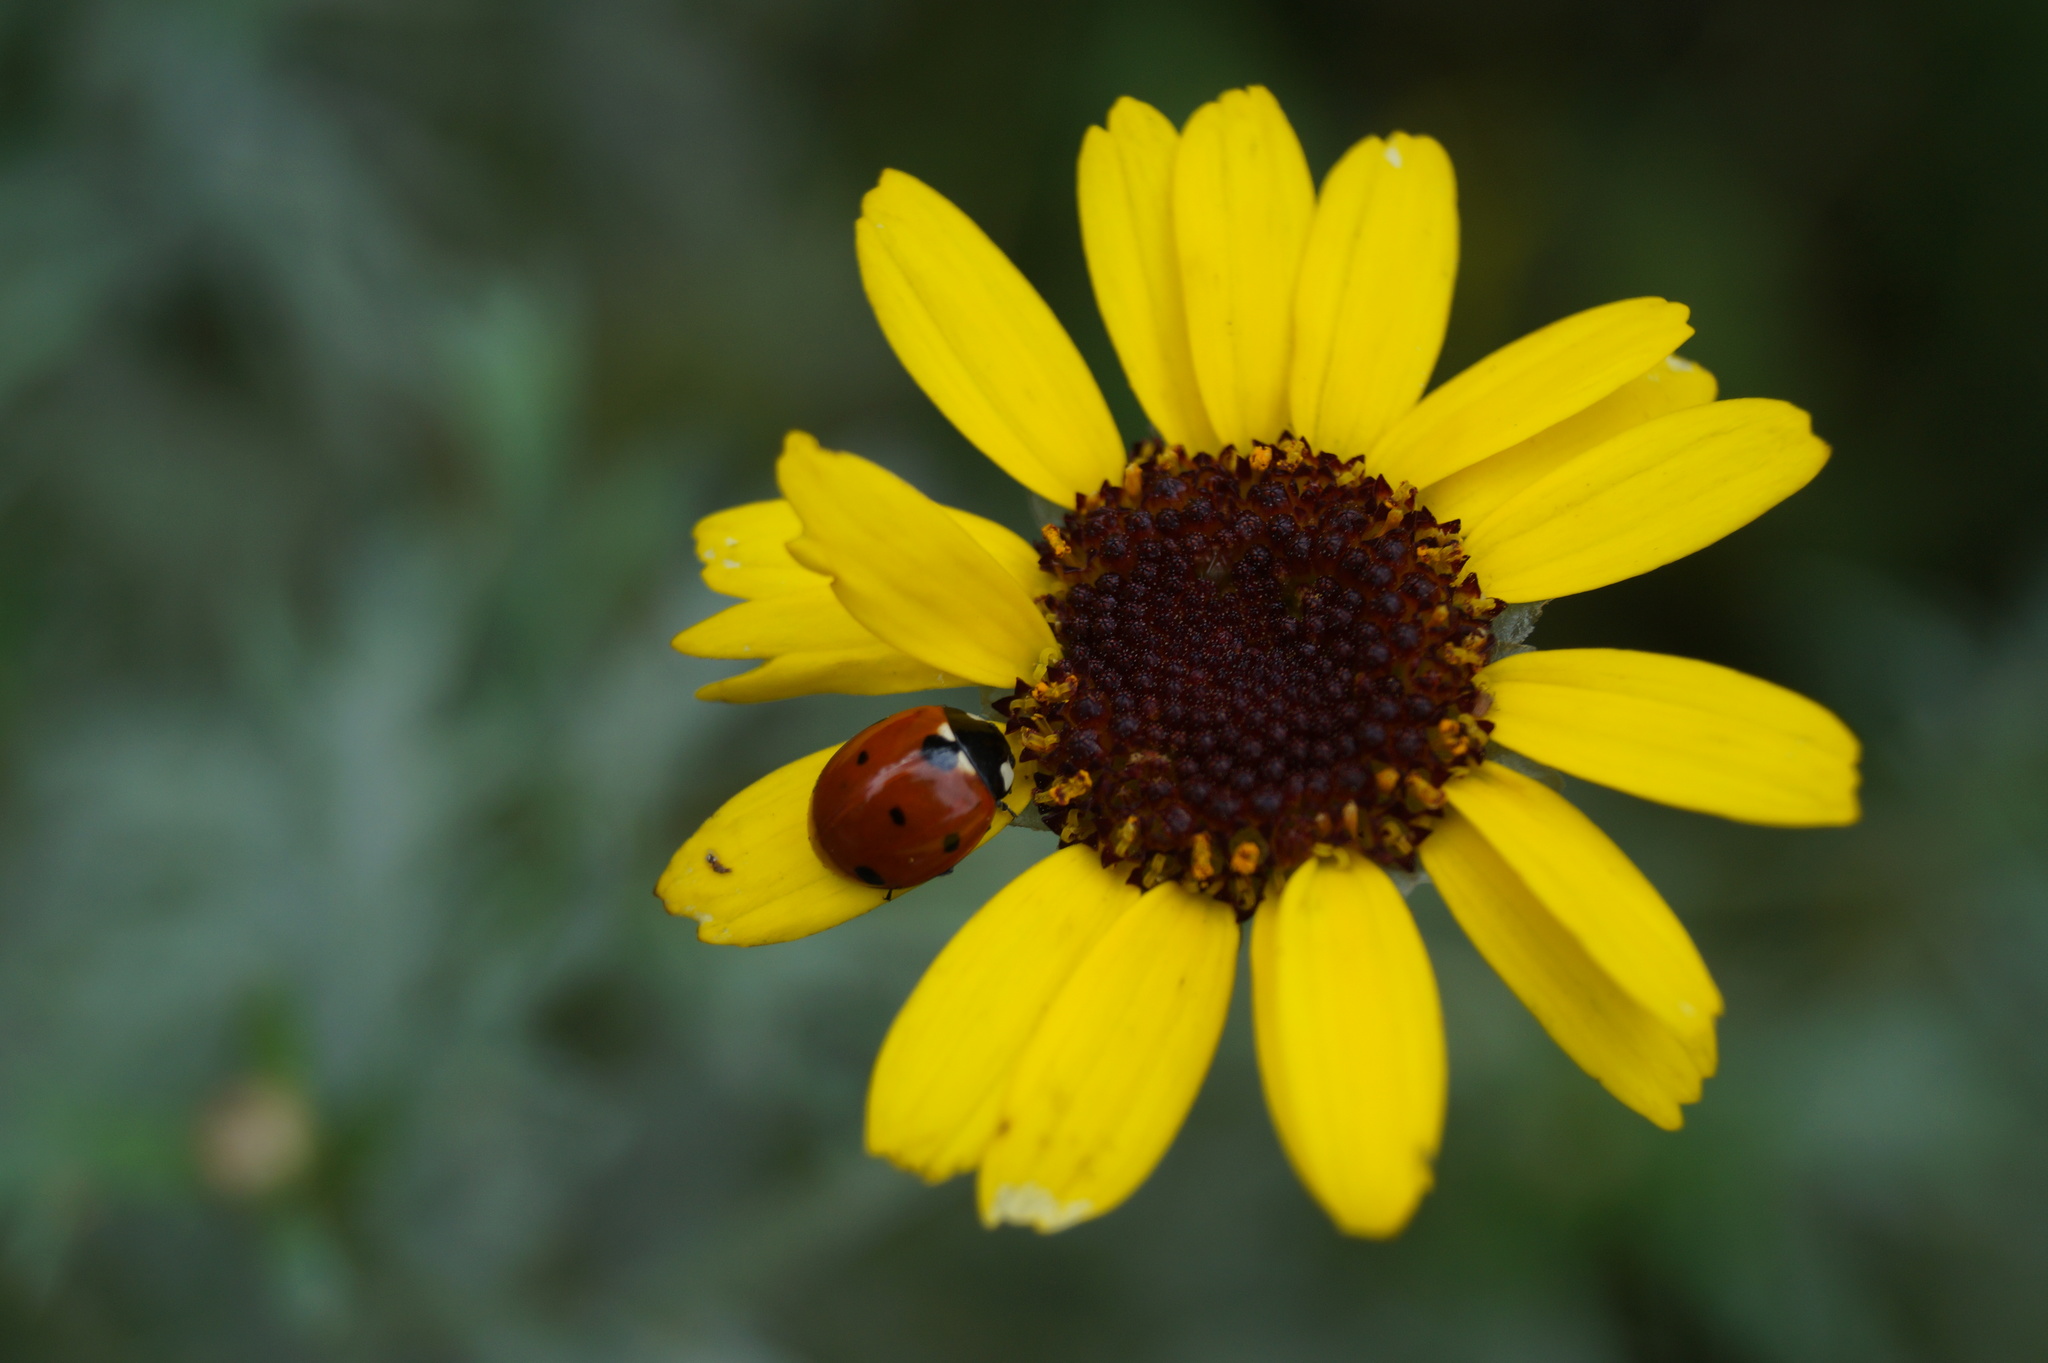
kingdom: Animalia
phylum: Arthropoda
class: Insecta
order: Coleoptera
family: Coccinellidae
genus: Coccinella
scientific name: Coccinella septempunctata
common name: Sevenspotted lady beetle
